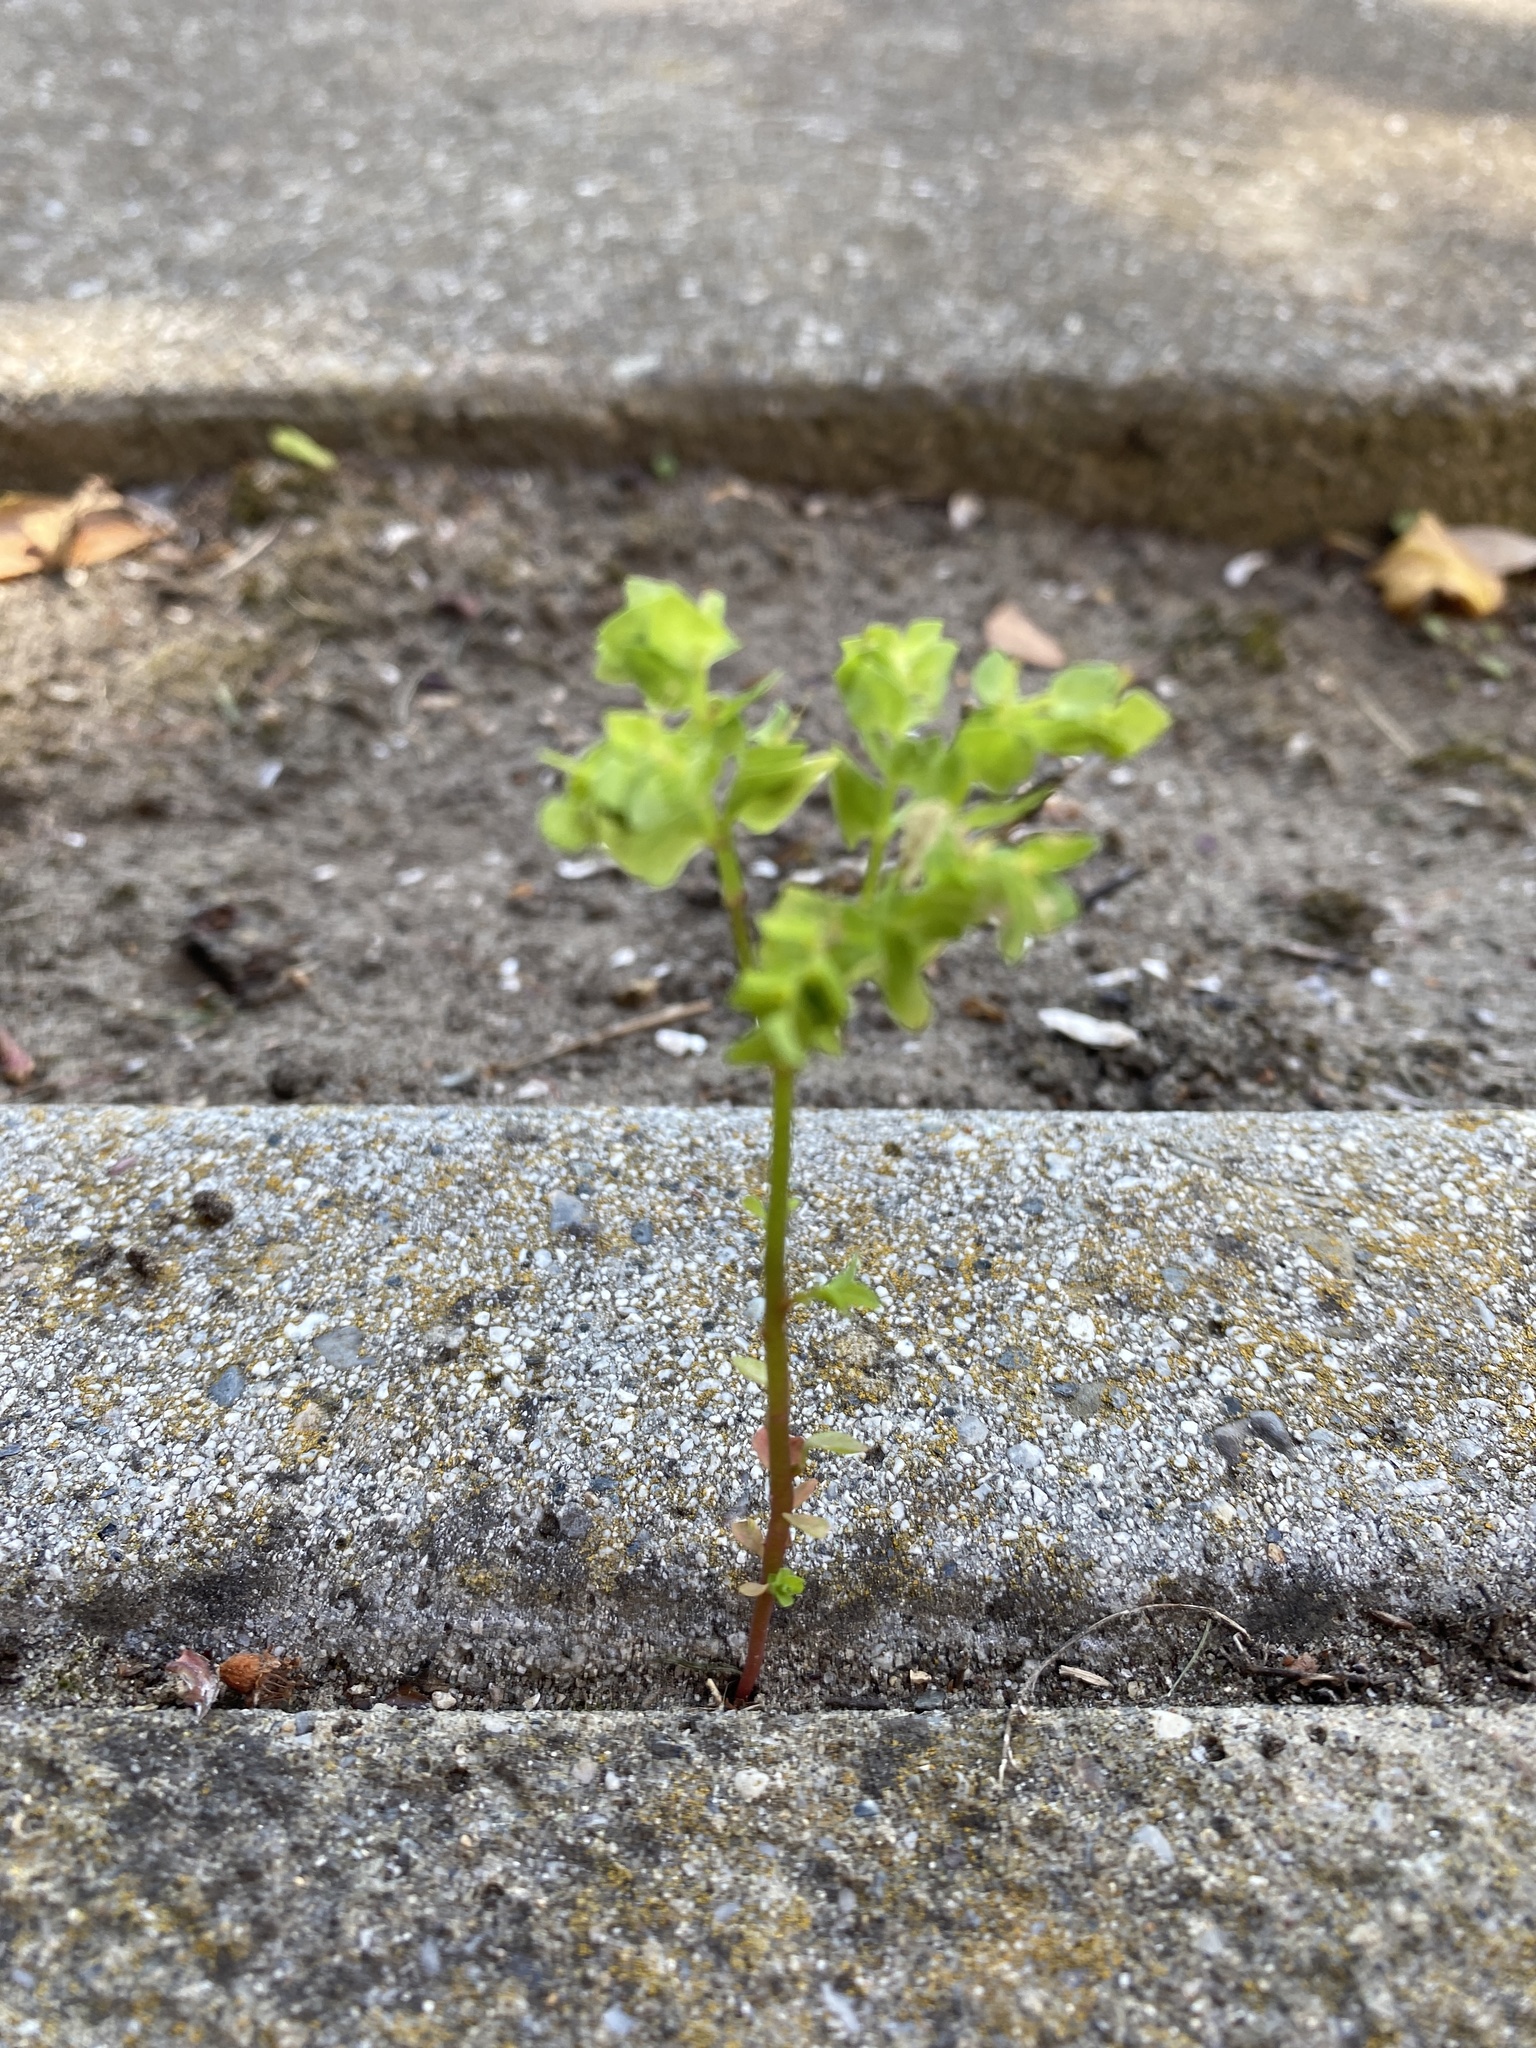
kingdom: Plantae
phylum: Tracheophyta
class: Magnoliopsida
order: Malpighiales
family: Euphorbiaceae
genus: Euphorbia
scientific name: Euphorbia peplus
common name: Petty spurge
